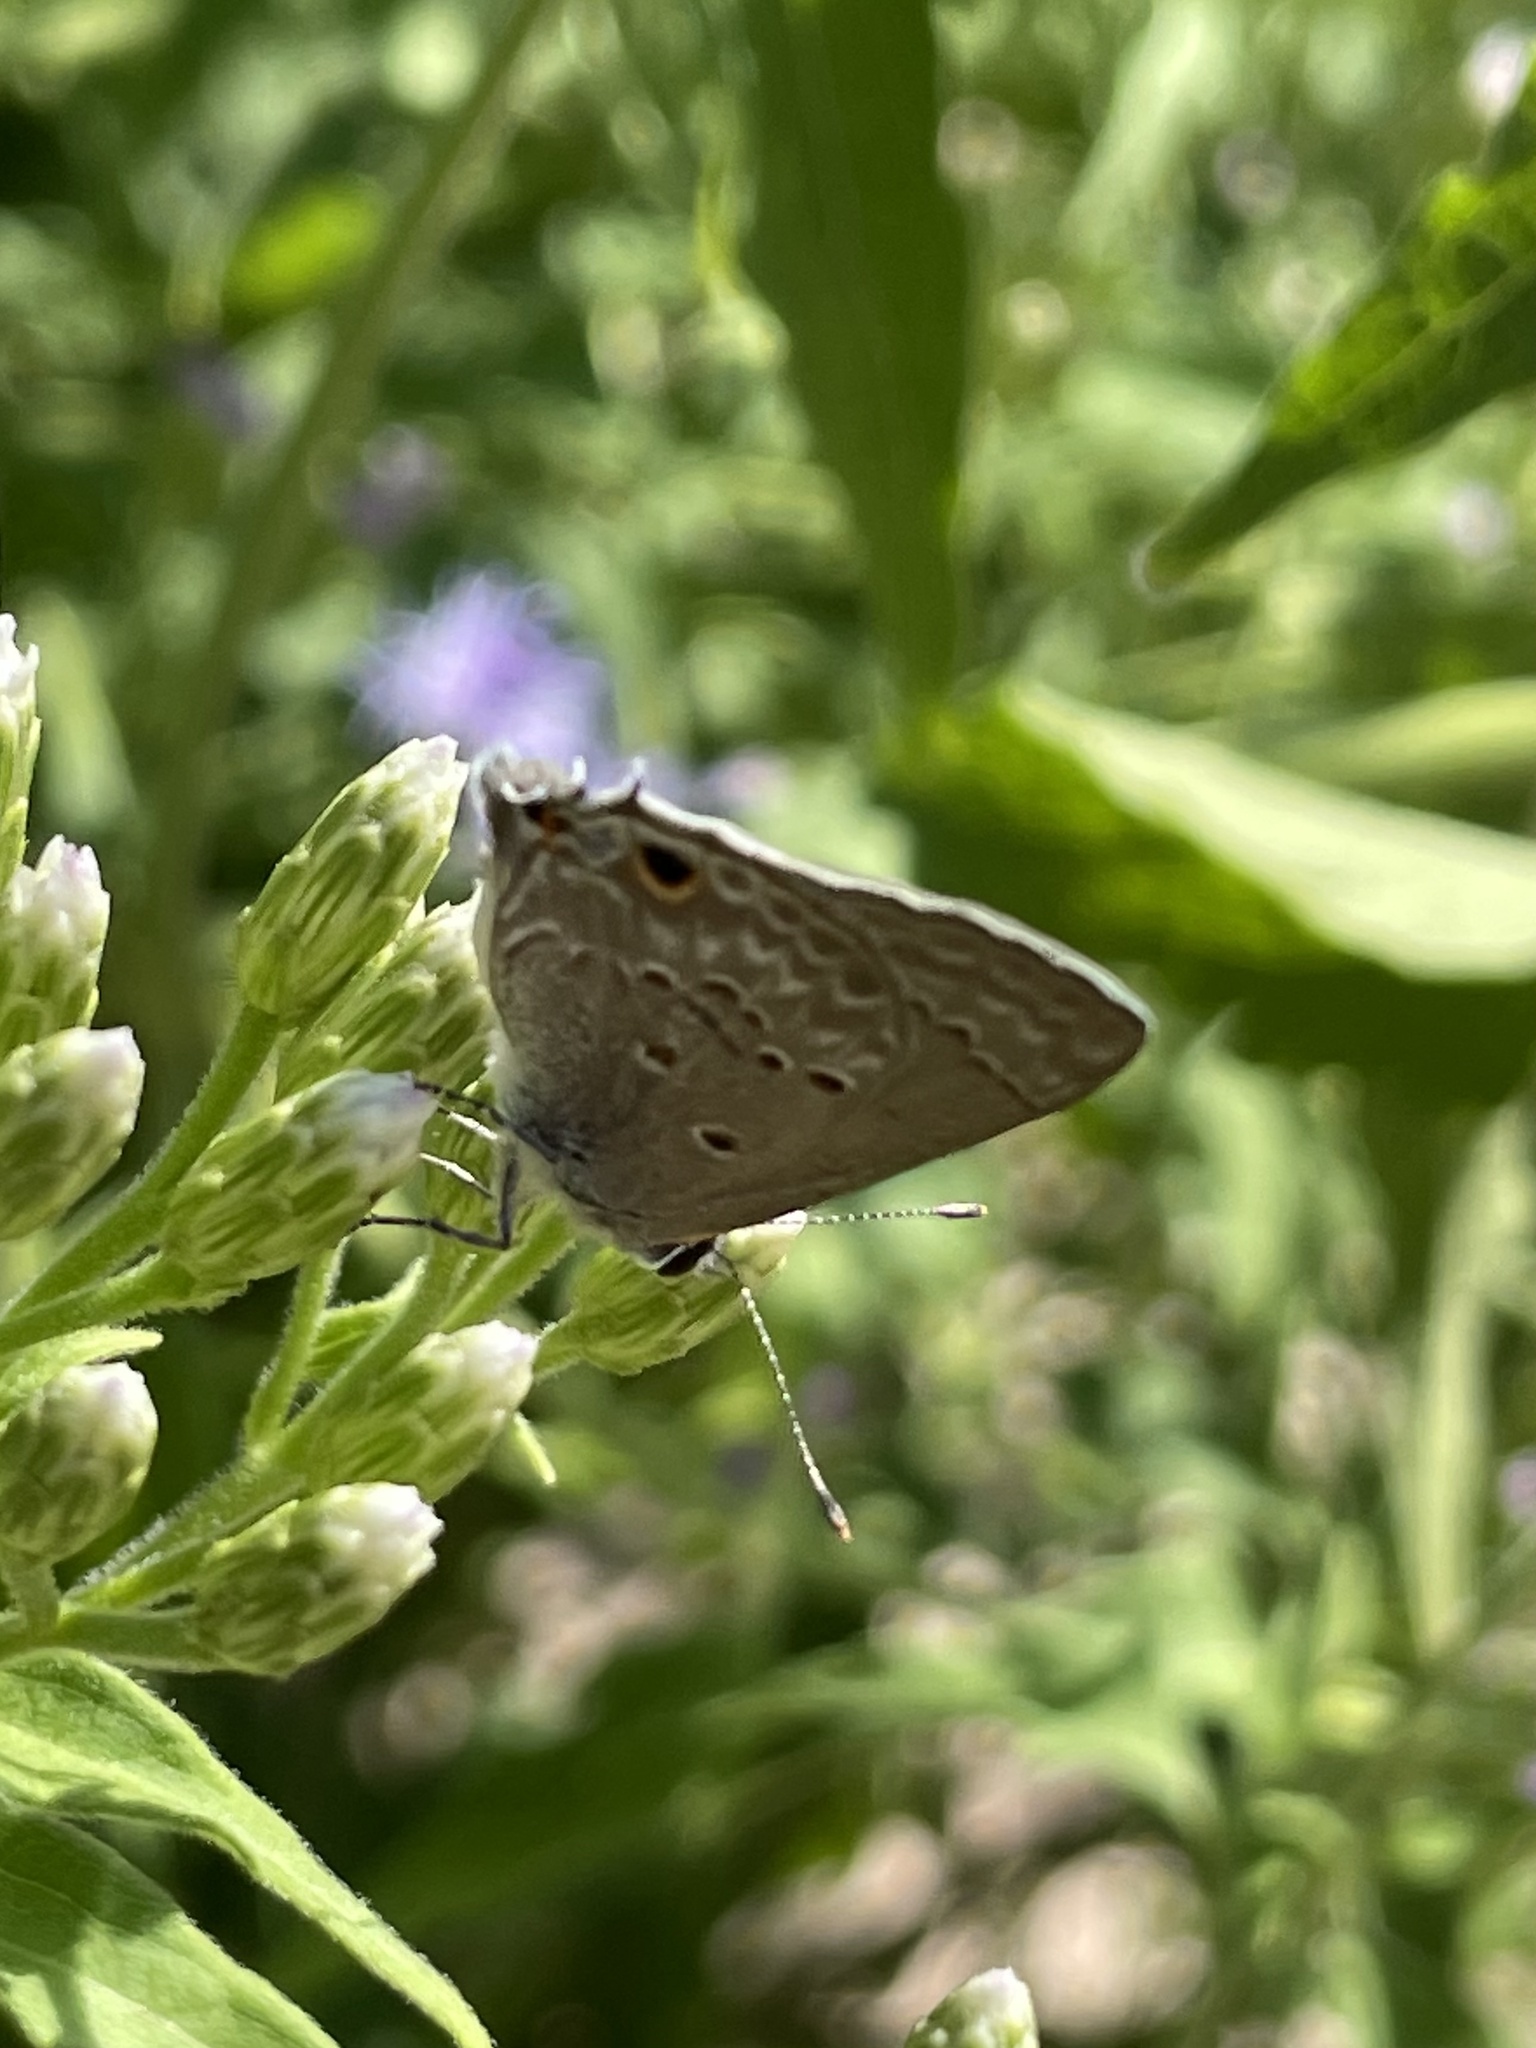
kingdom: Animalia
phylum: Arthropoda
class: Insecta
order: Lepidoptera
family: Lycaenidae
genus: Callicista
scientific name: Callicista columella
